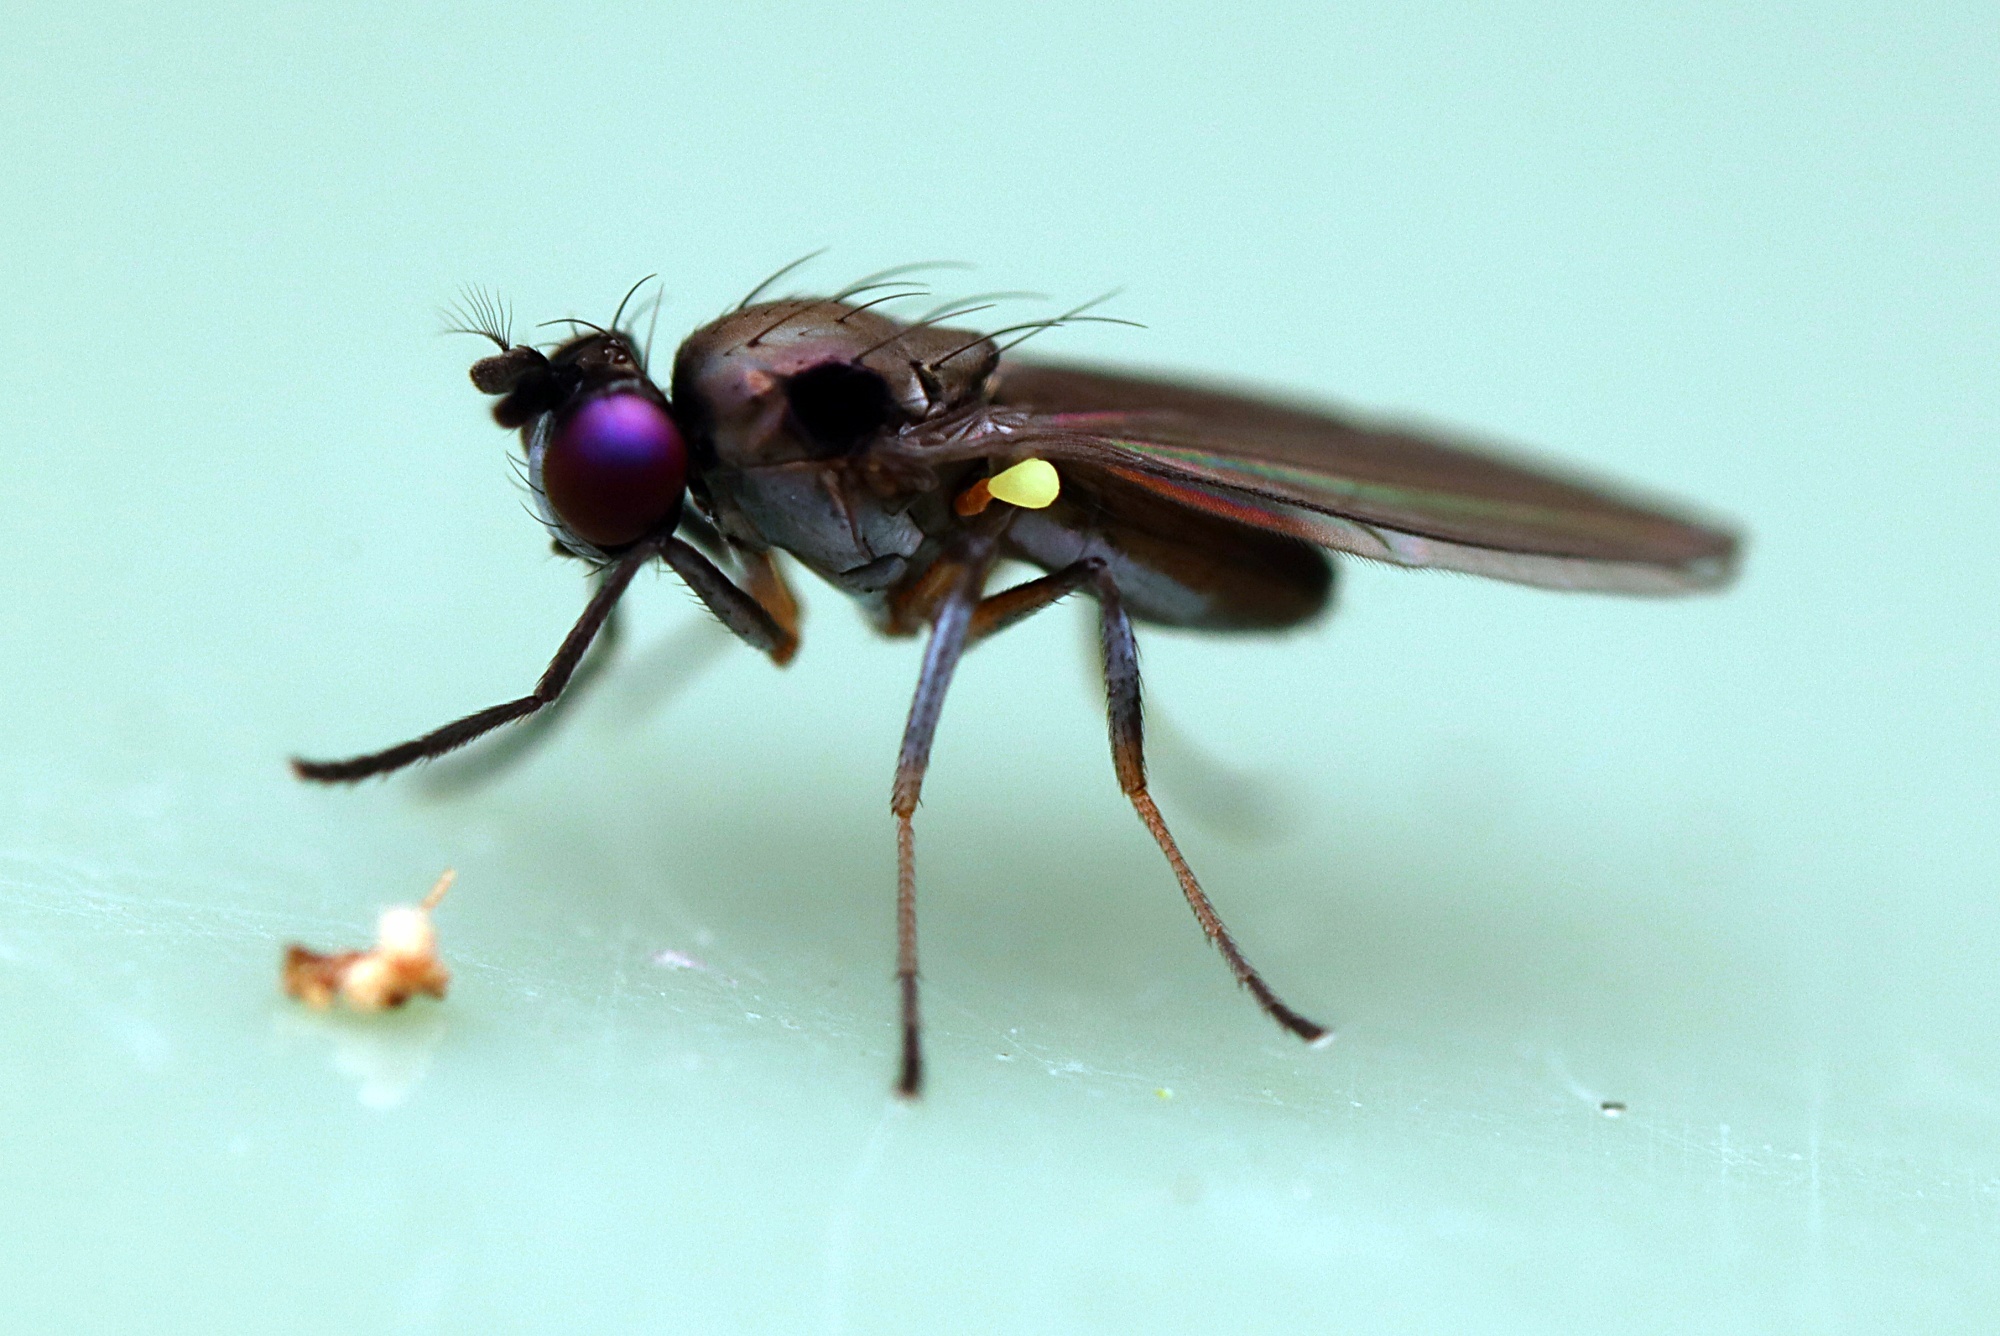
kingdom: Animalia
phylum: Arthropoda
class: Insecta
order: Diptera
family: Ephydridae
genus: Hydrellia
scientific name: Hydrellia tritici
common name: Shore fly
